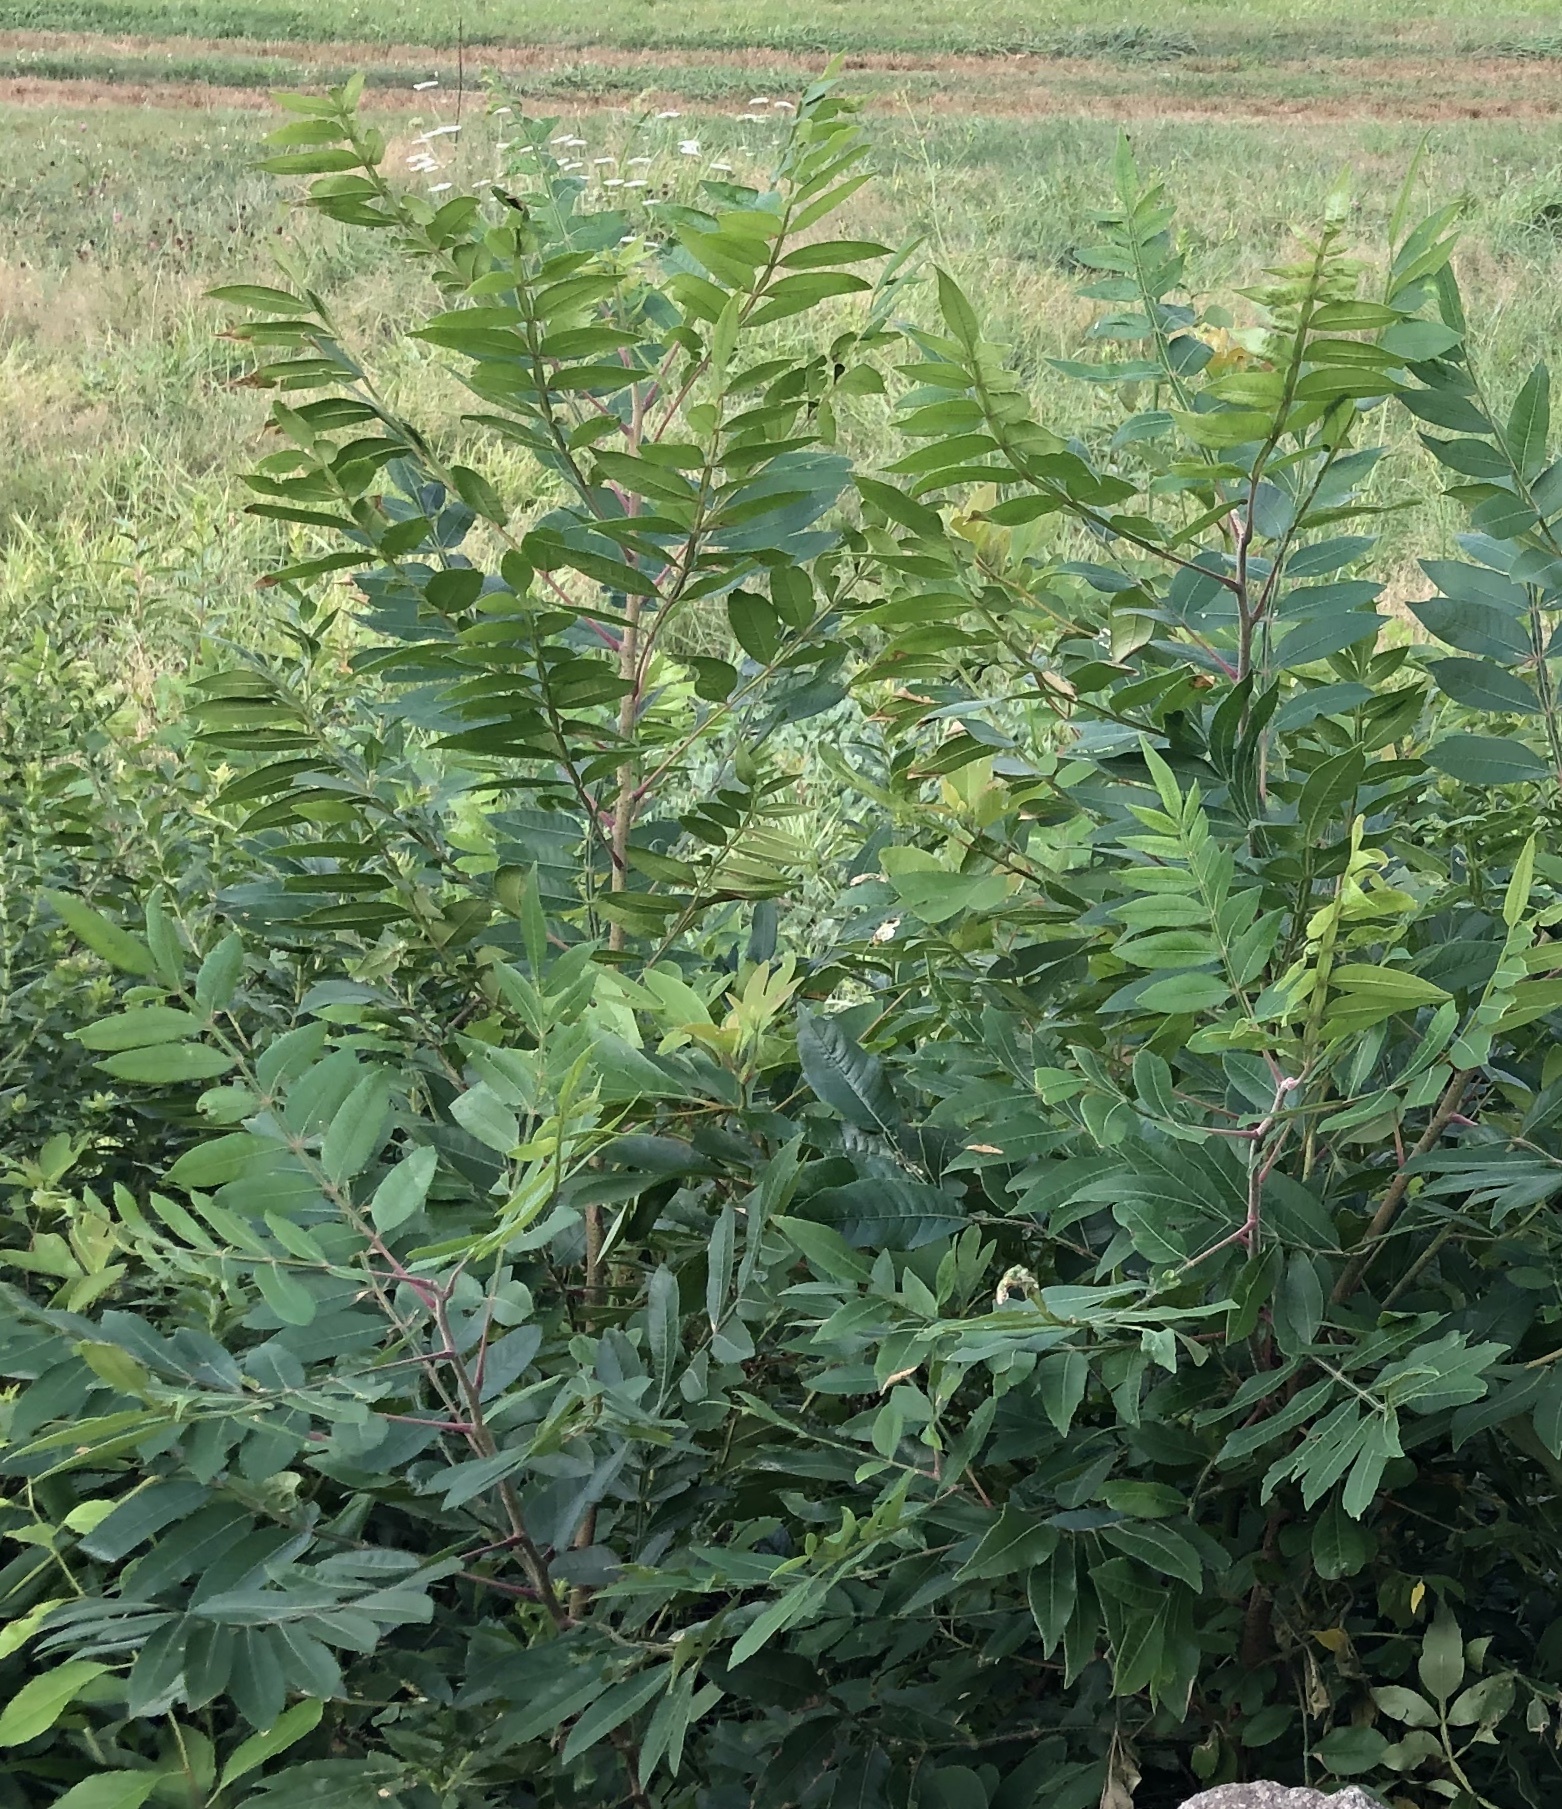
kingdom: Plantae
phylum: Tracheophyta
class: Magnoliopsida
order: Sapindales
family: Anacardiaceae
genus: Rhus
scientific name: Rhus copallina
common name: Shining sumac
